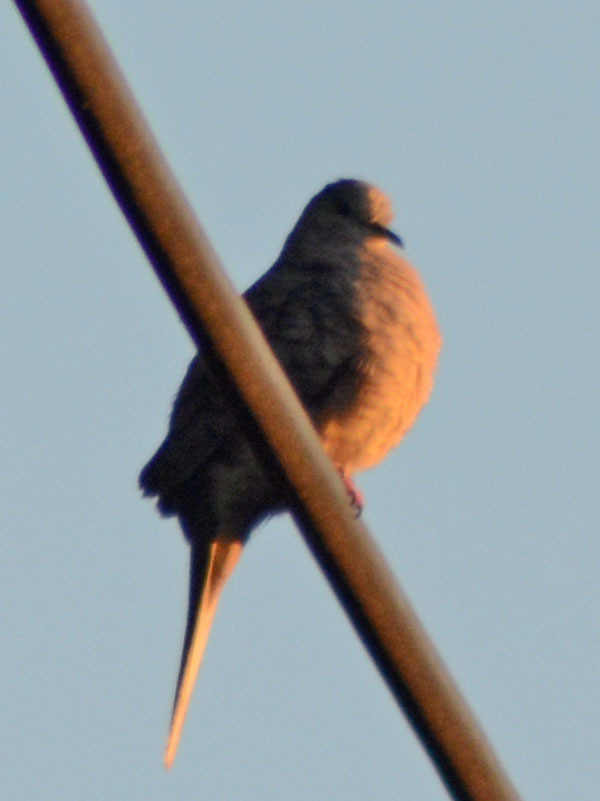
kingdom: Animalia
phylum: Chordata
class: Aves
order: Columbiformes
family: Columbidae
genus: Columbina
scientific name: Columbina inca
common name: Inca dove
